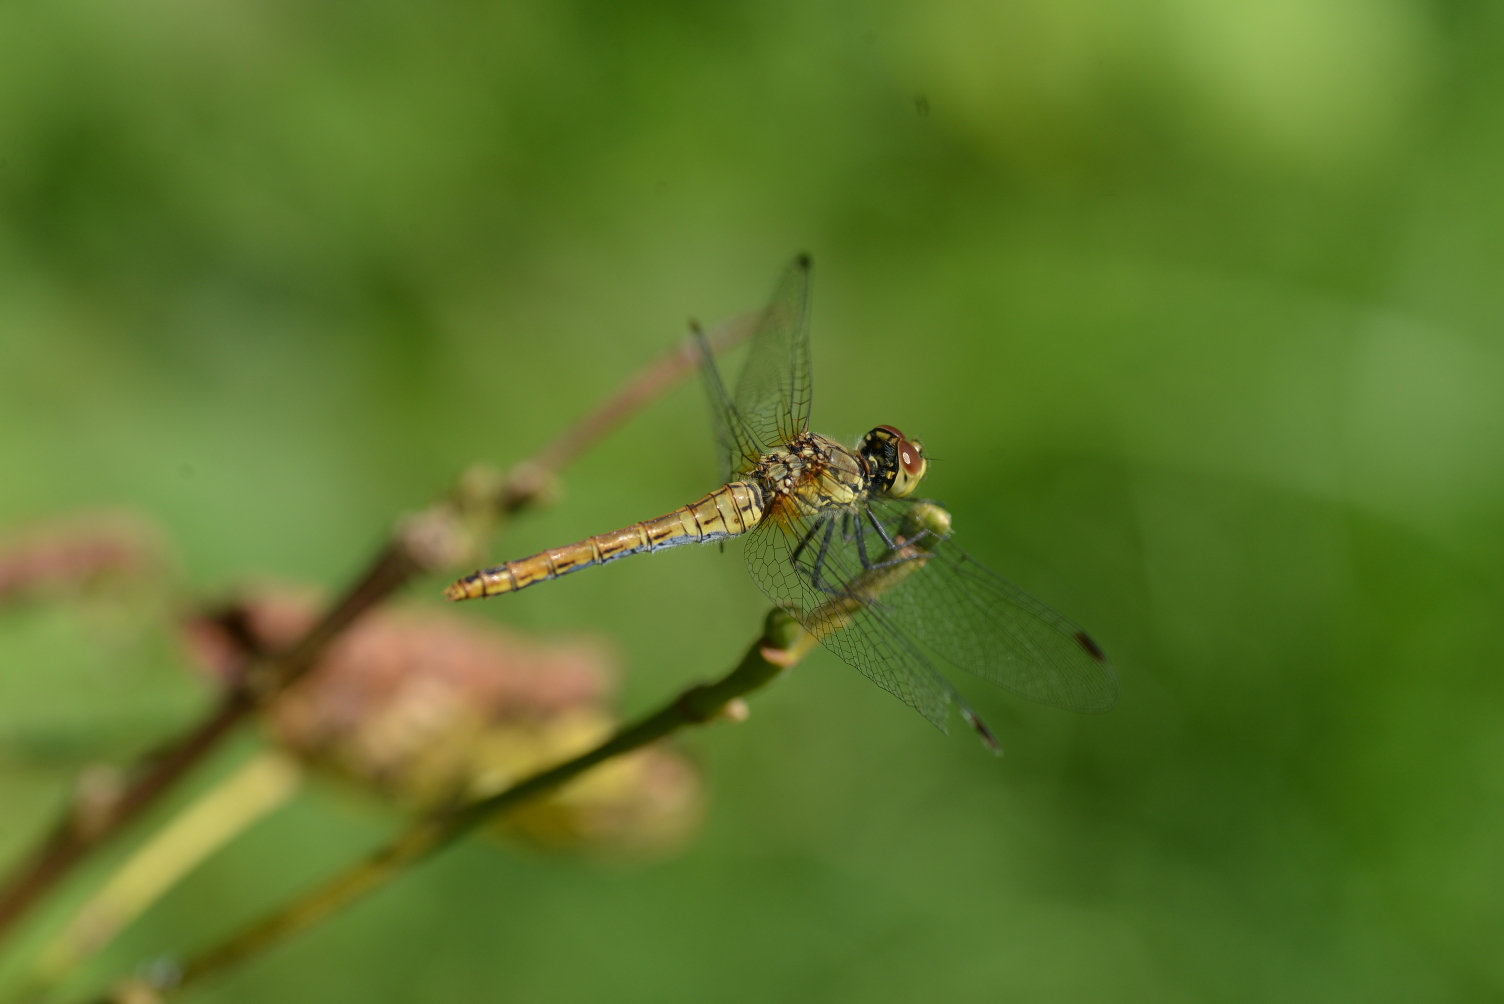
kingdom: Animalia
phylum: Arthropoda
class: Insecta
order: Odonata
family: Libellulidae
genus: Sympetrum
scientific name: Sympetrum sanguineum
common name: Ruddy darter
